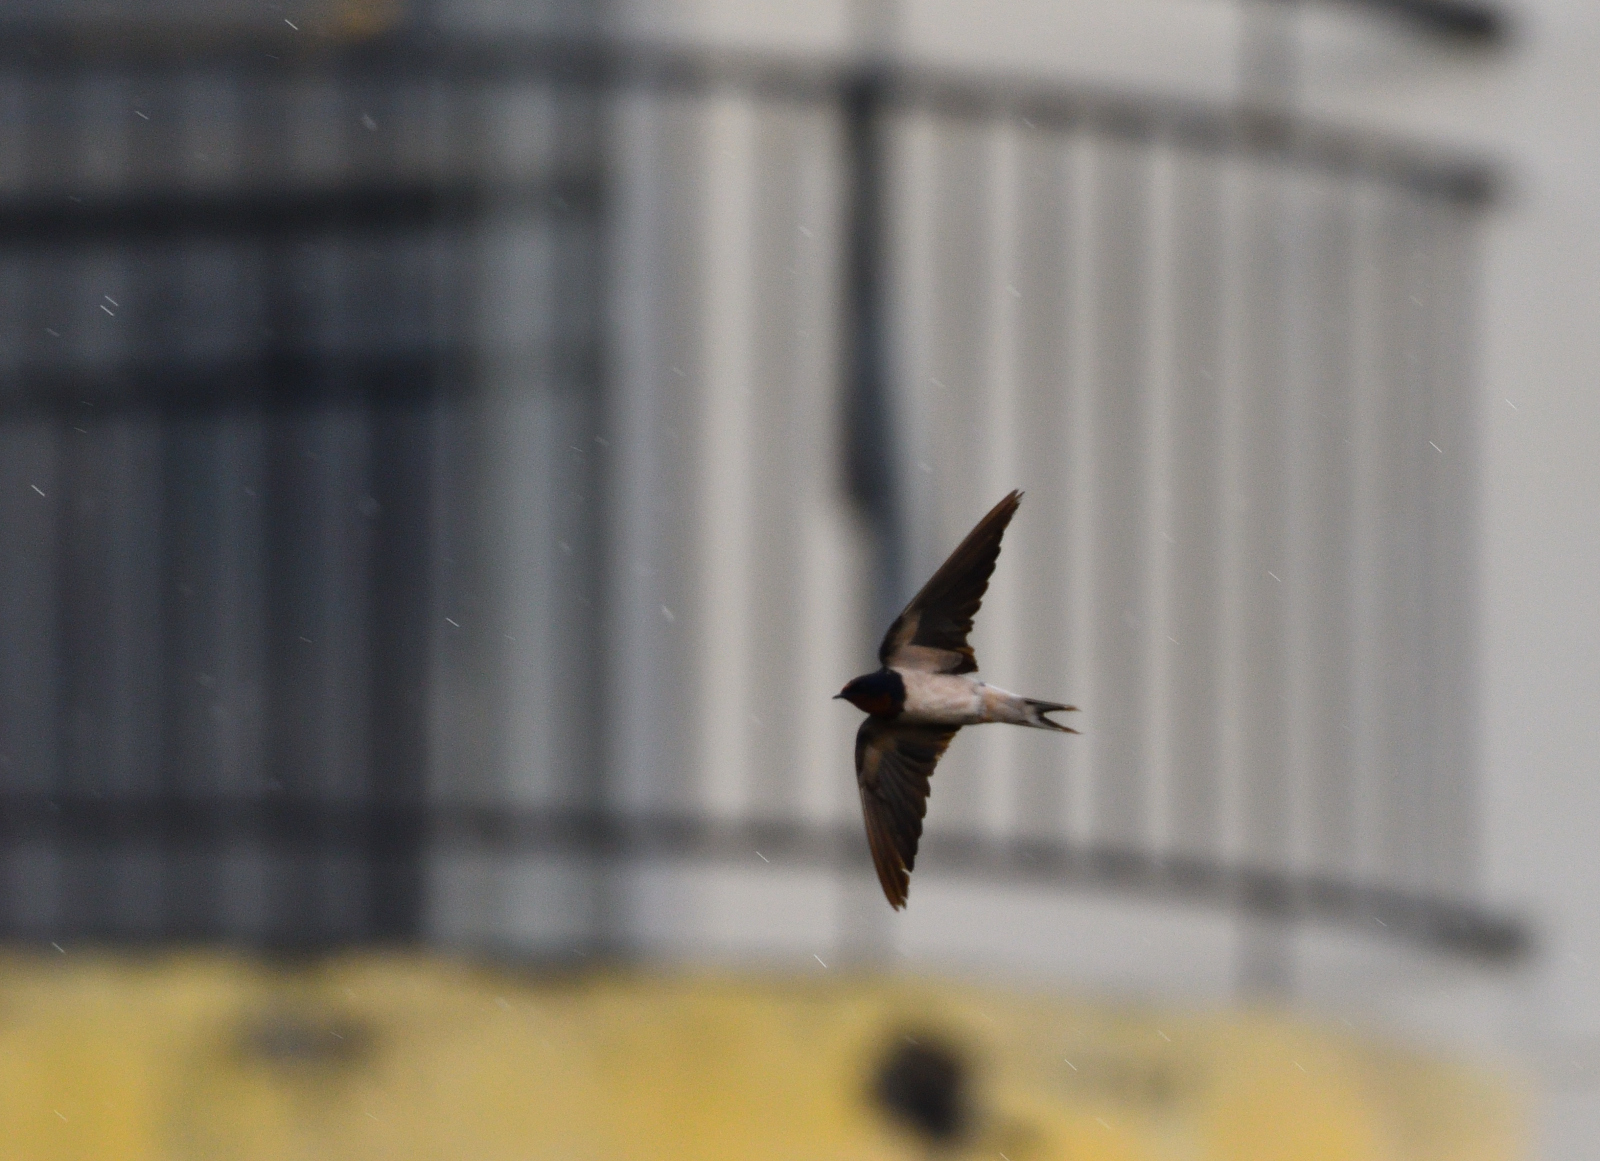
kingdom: Animalia
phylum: Chordata
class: Aves
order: Passeriformes
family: Hirundinidae
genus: Hirundo
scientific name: Hirundo rustica
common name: Barn swallow
